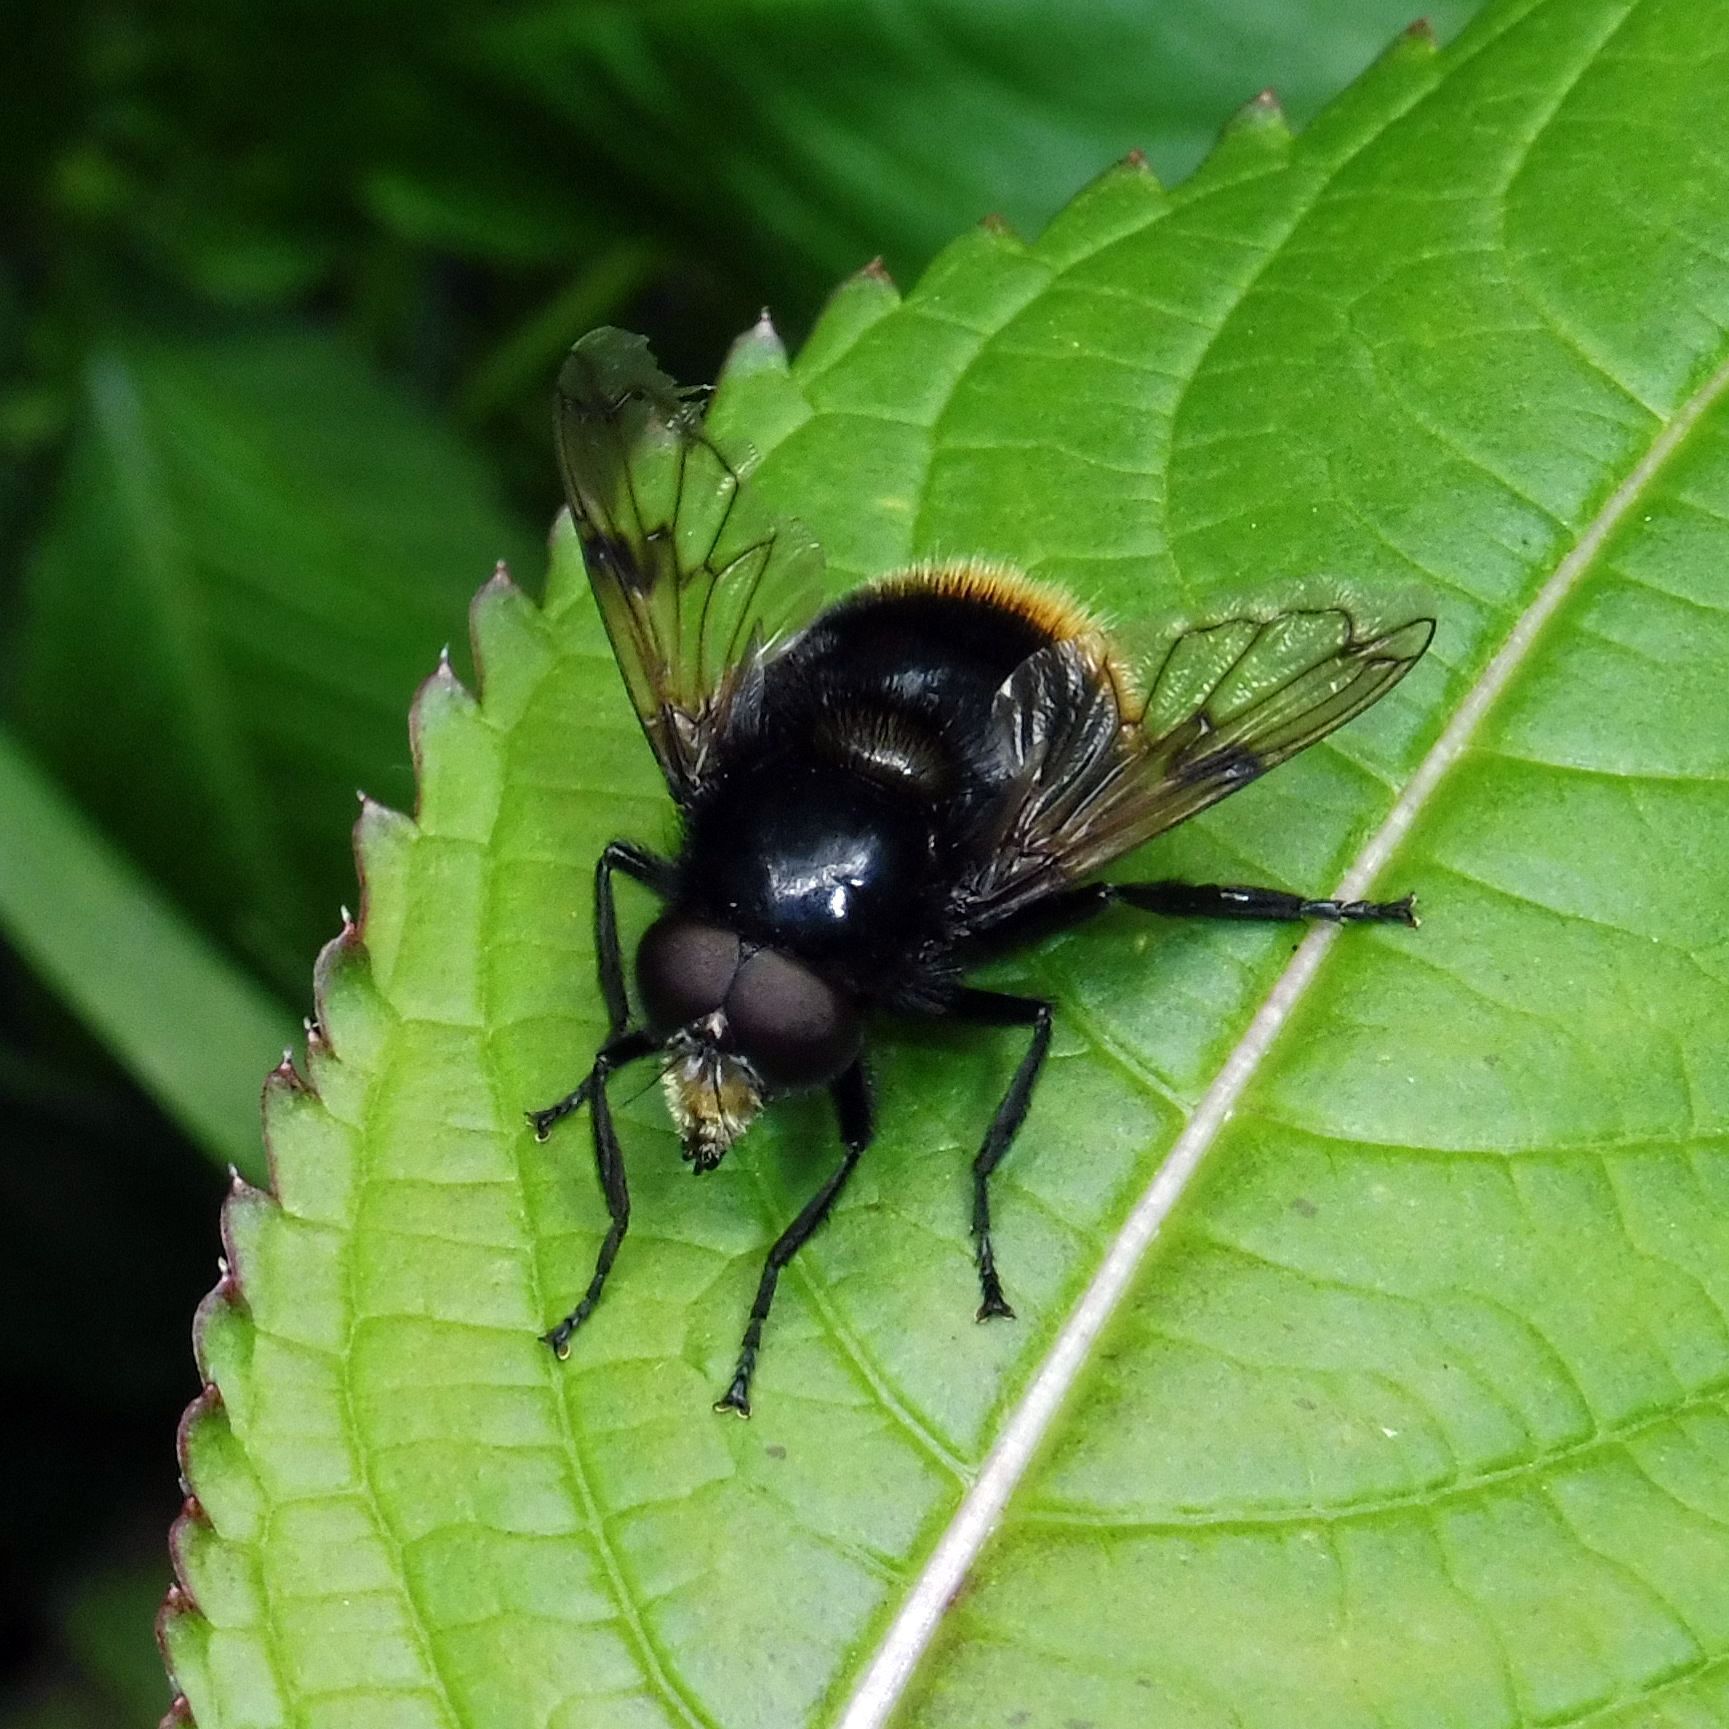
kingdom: Animalia
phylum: Arthropoda
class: Insecta
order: Diptera
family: Syrphidae
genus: Volucella
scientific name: Volucella bombylans
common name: Bumble bee hover fly
